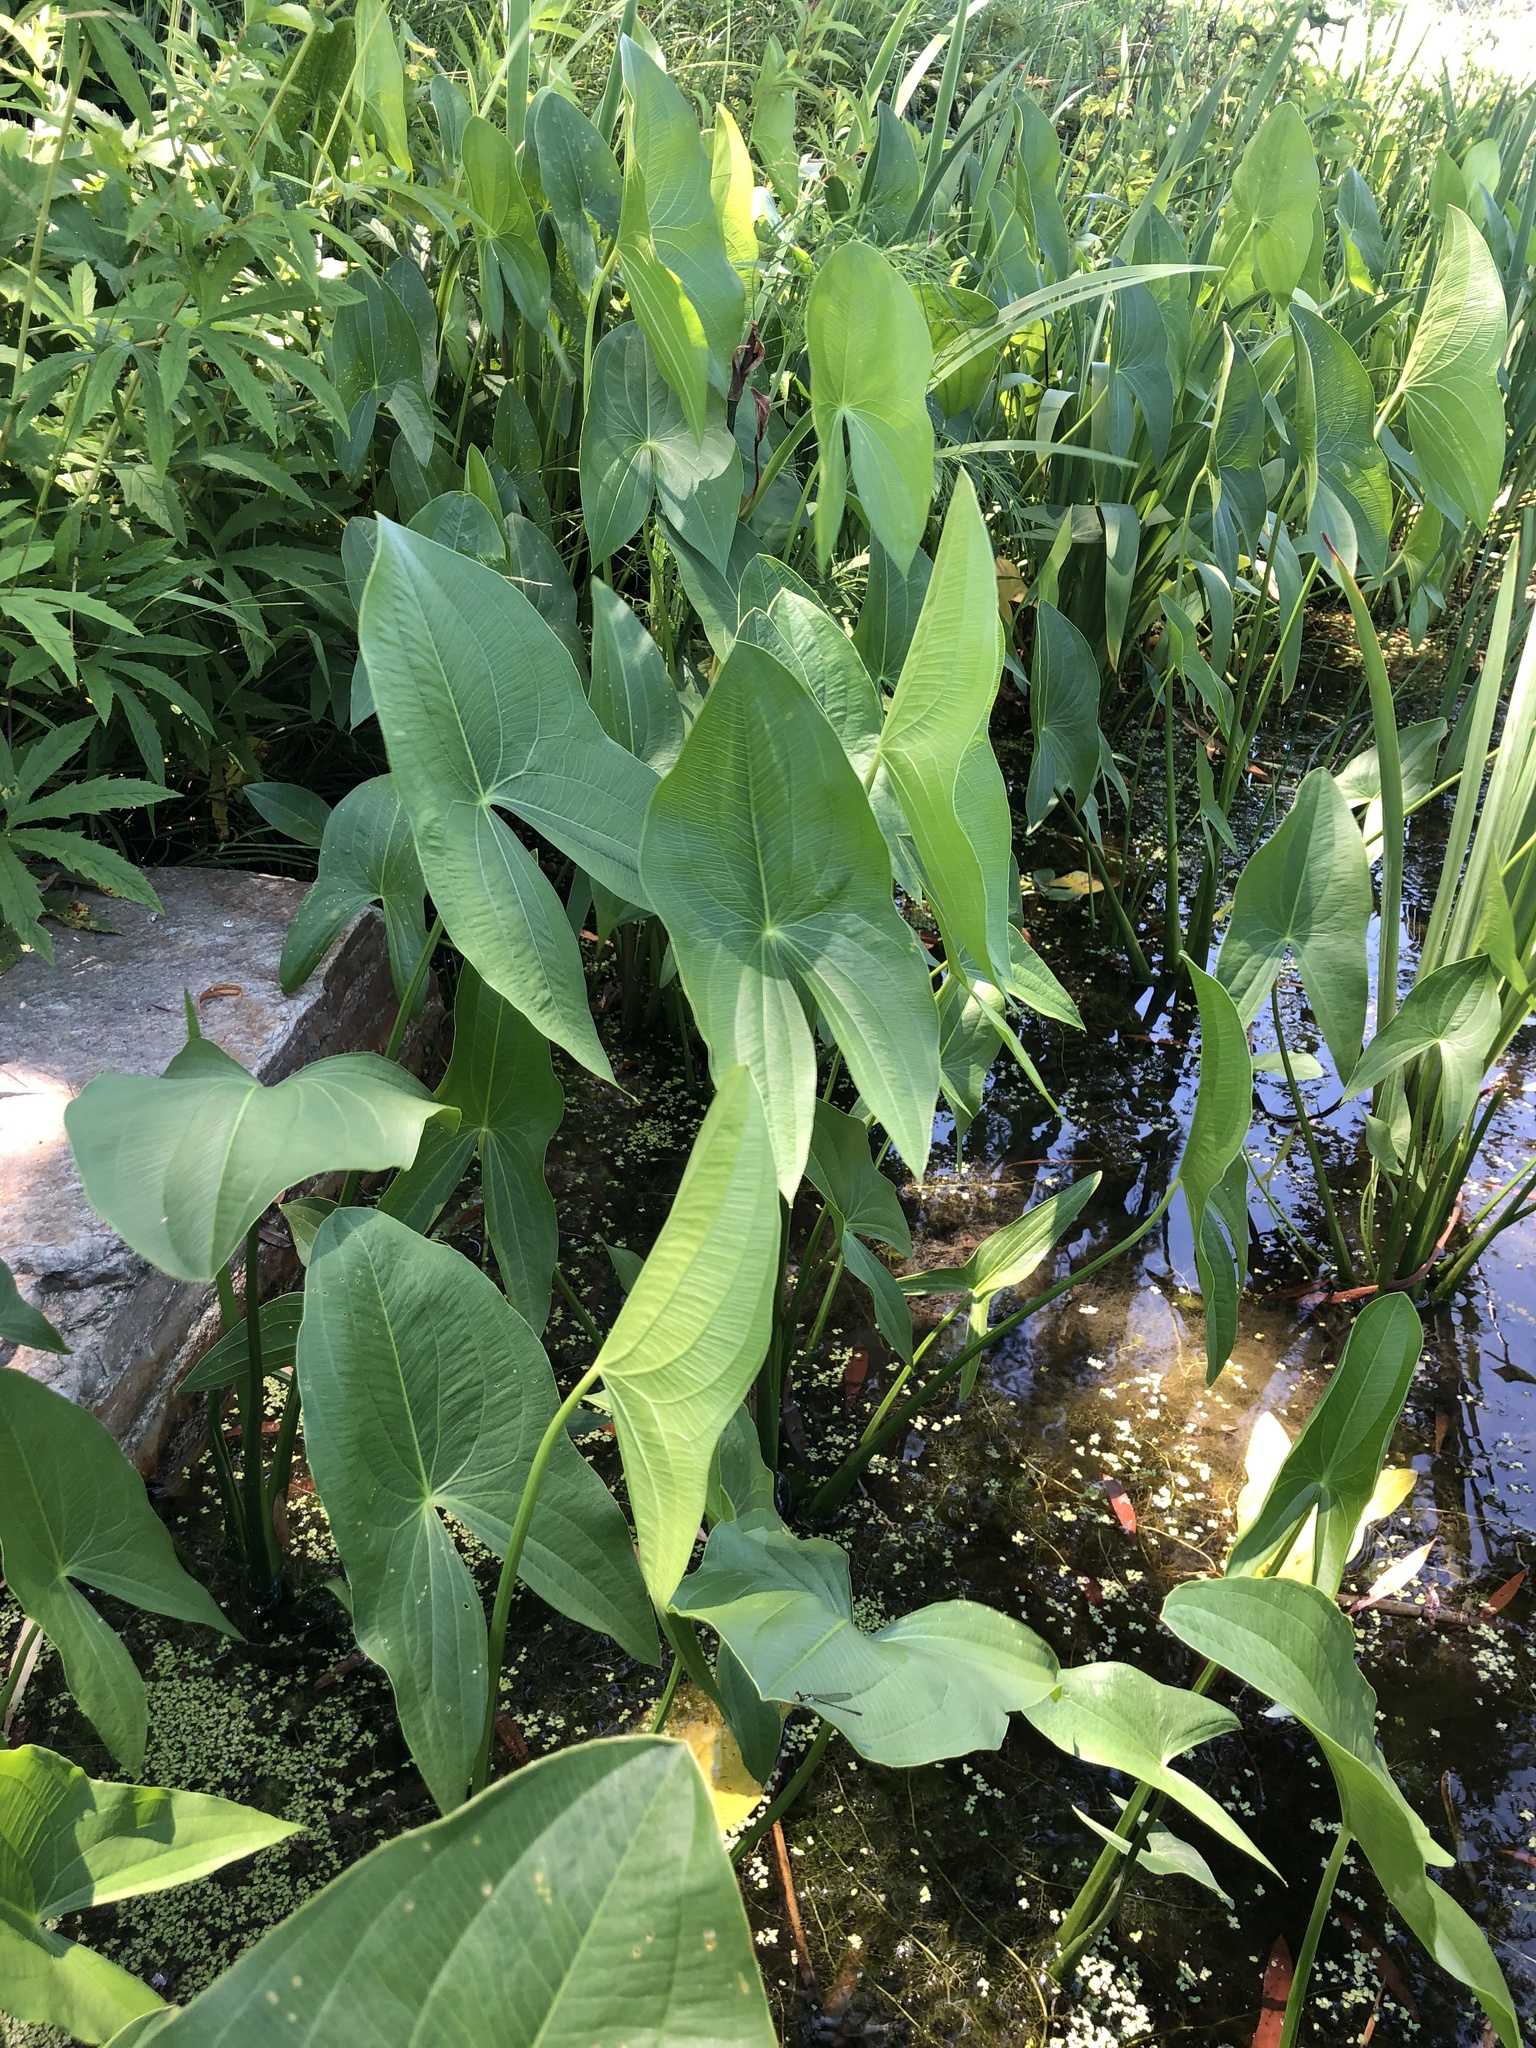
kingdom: Plantae
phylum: Tracheophyta
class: Liliopsida
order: Alismatales
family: Alismataceae
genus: Sagittaria
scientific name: Sagittaria
